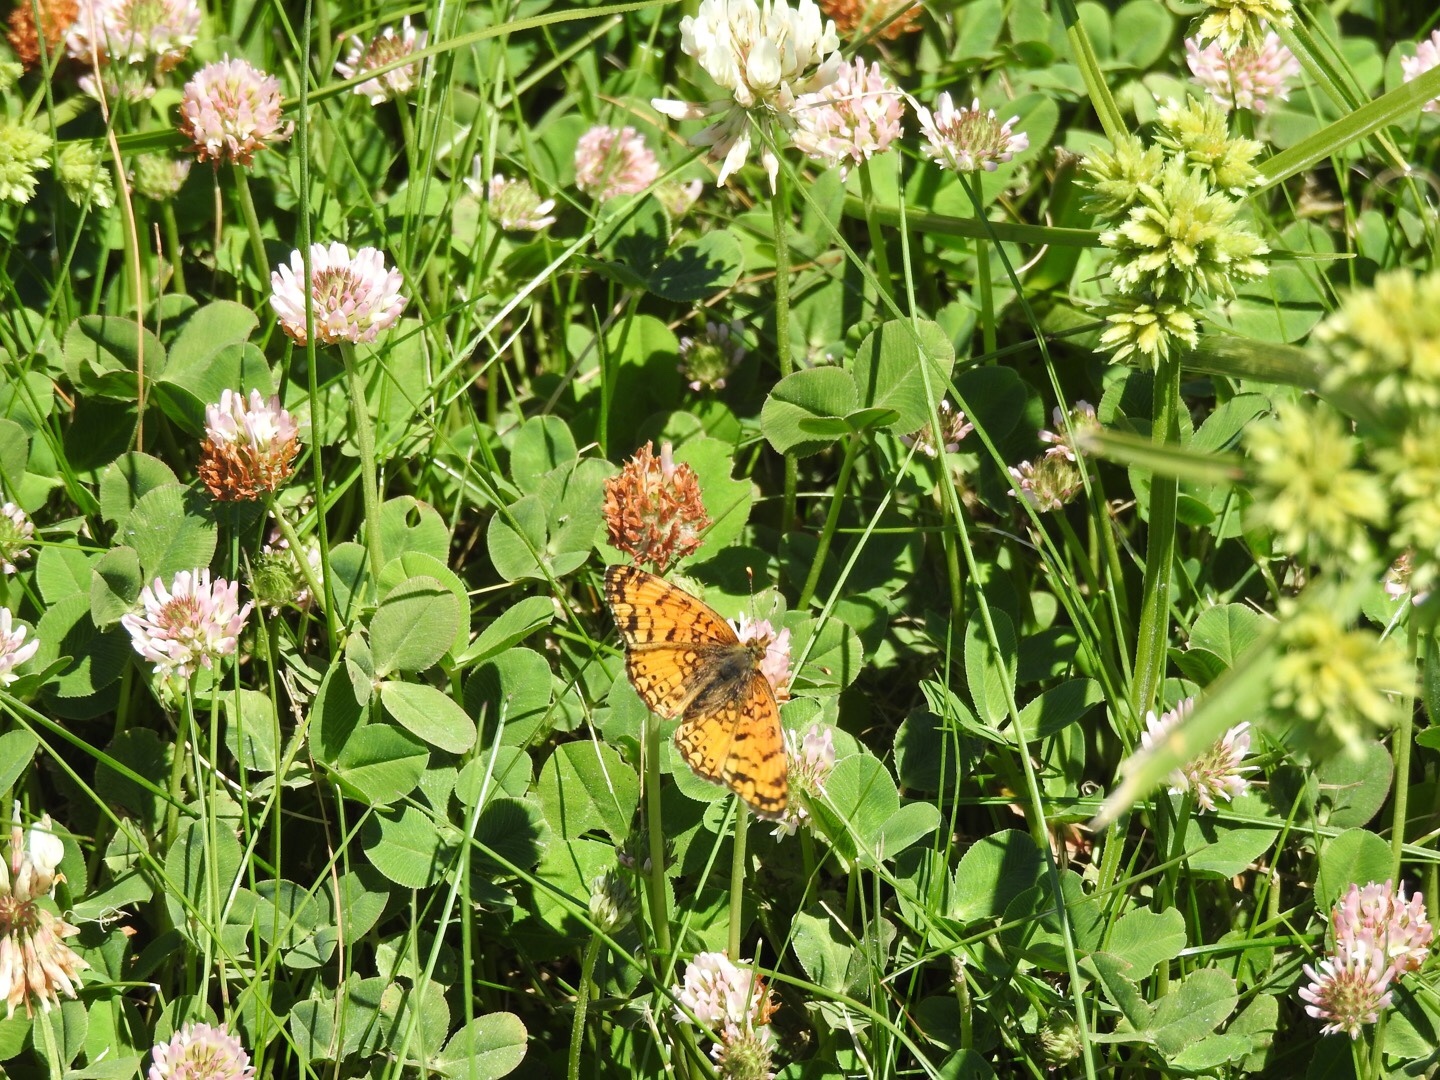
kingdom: Plantae
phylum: Tracheophyta
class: Magnoliopsida
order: Fabales
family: Fabaceae
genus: Trifolium
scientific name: Trifolium repens
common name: White clover
